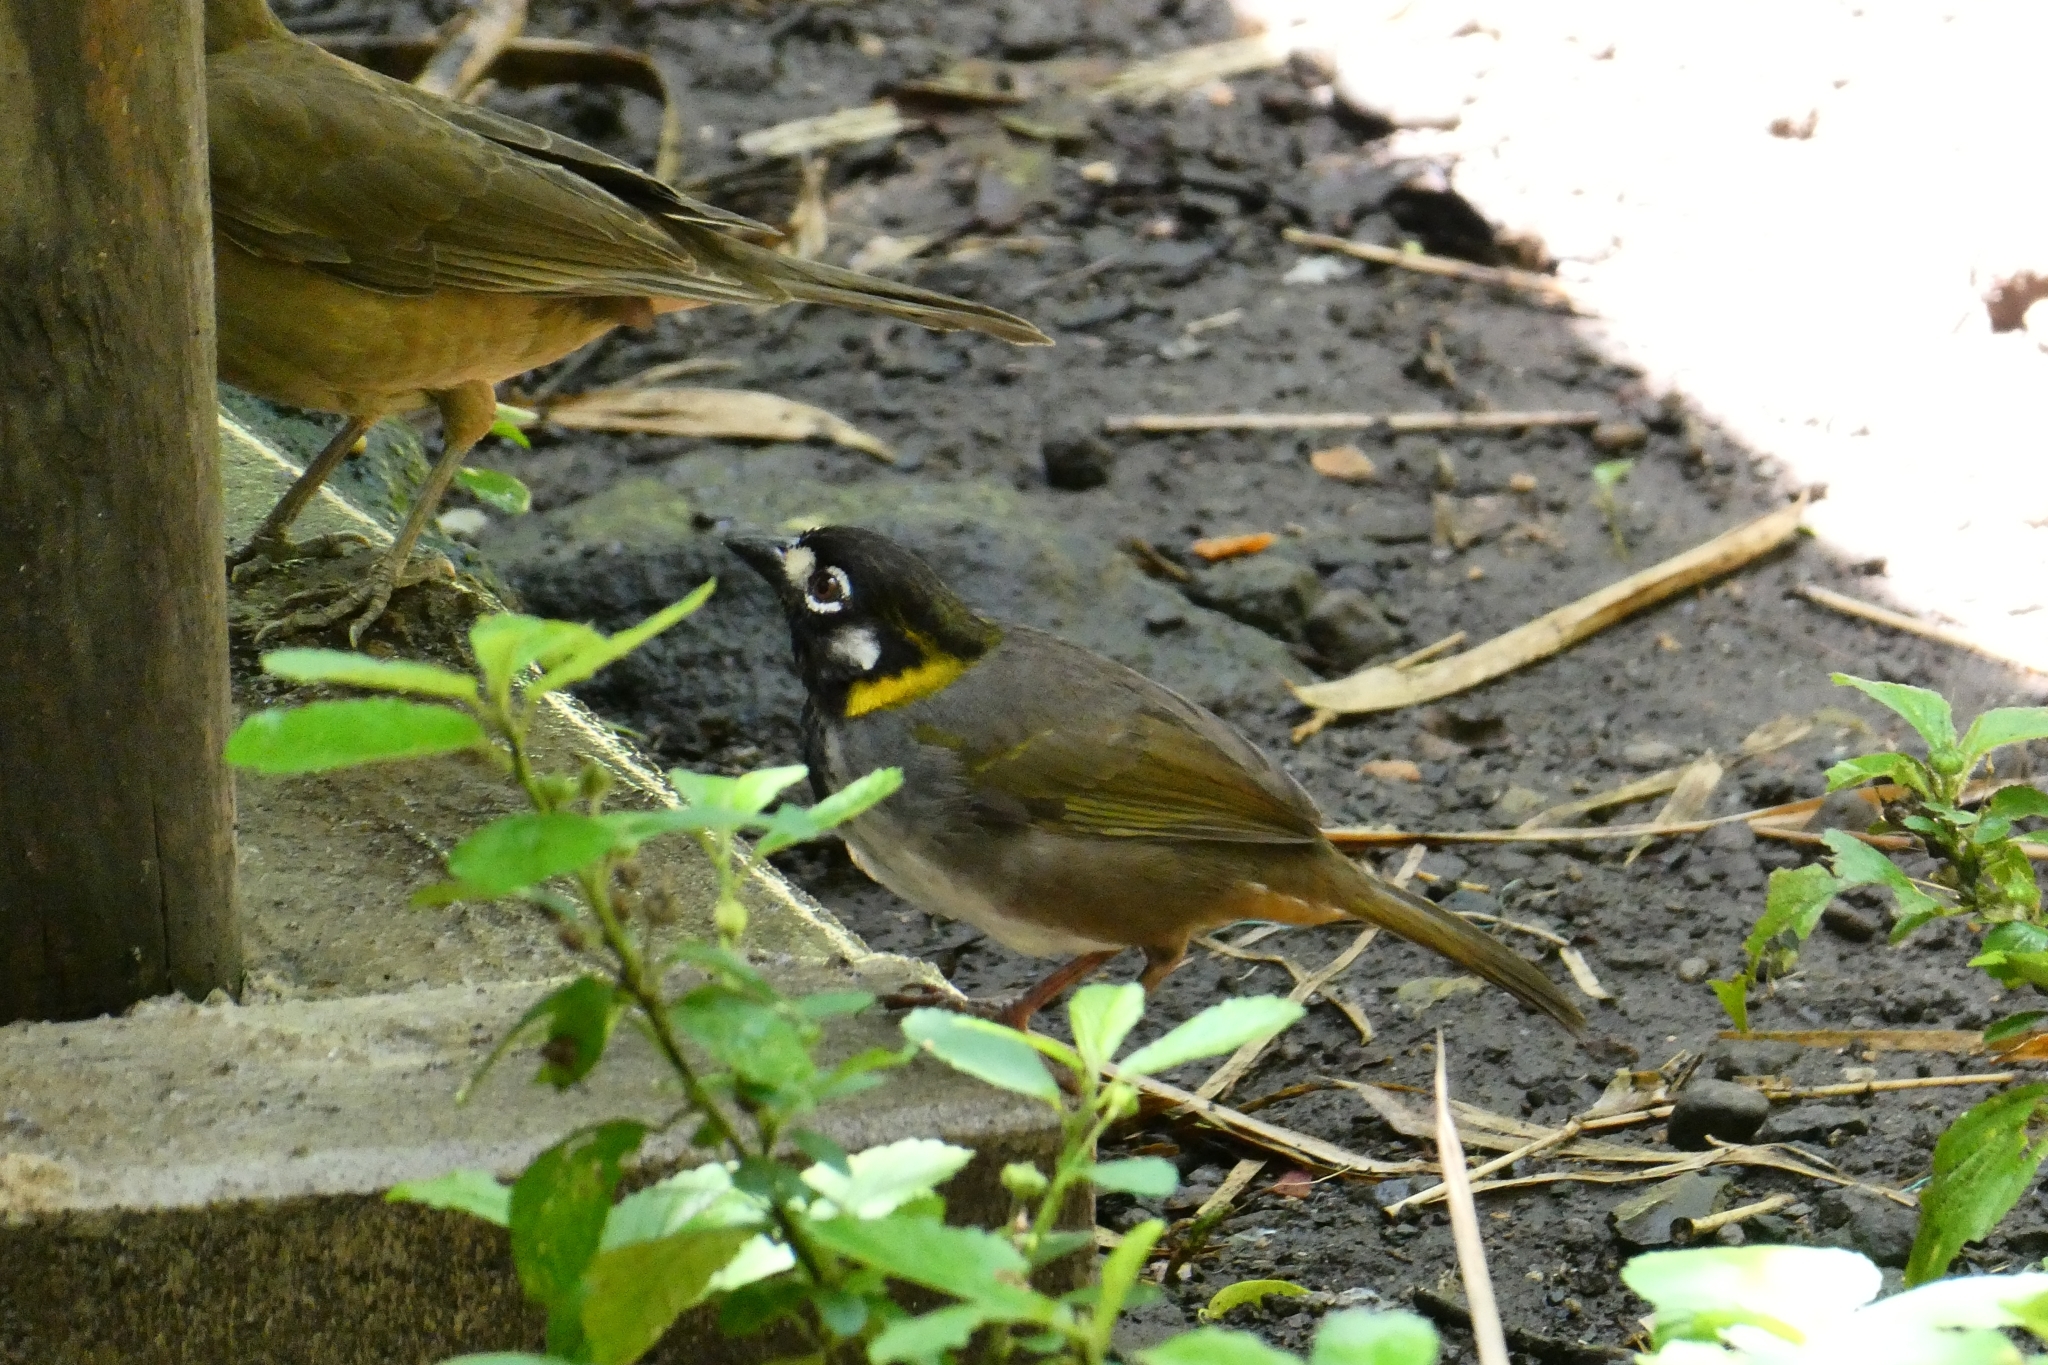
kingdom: Animalia
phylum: Chordata
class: Aves
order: Passeriformes
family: Passerellidae
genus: Melozone
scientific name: Melozone leucotis
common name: White-eared ground-sparrow
